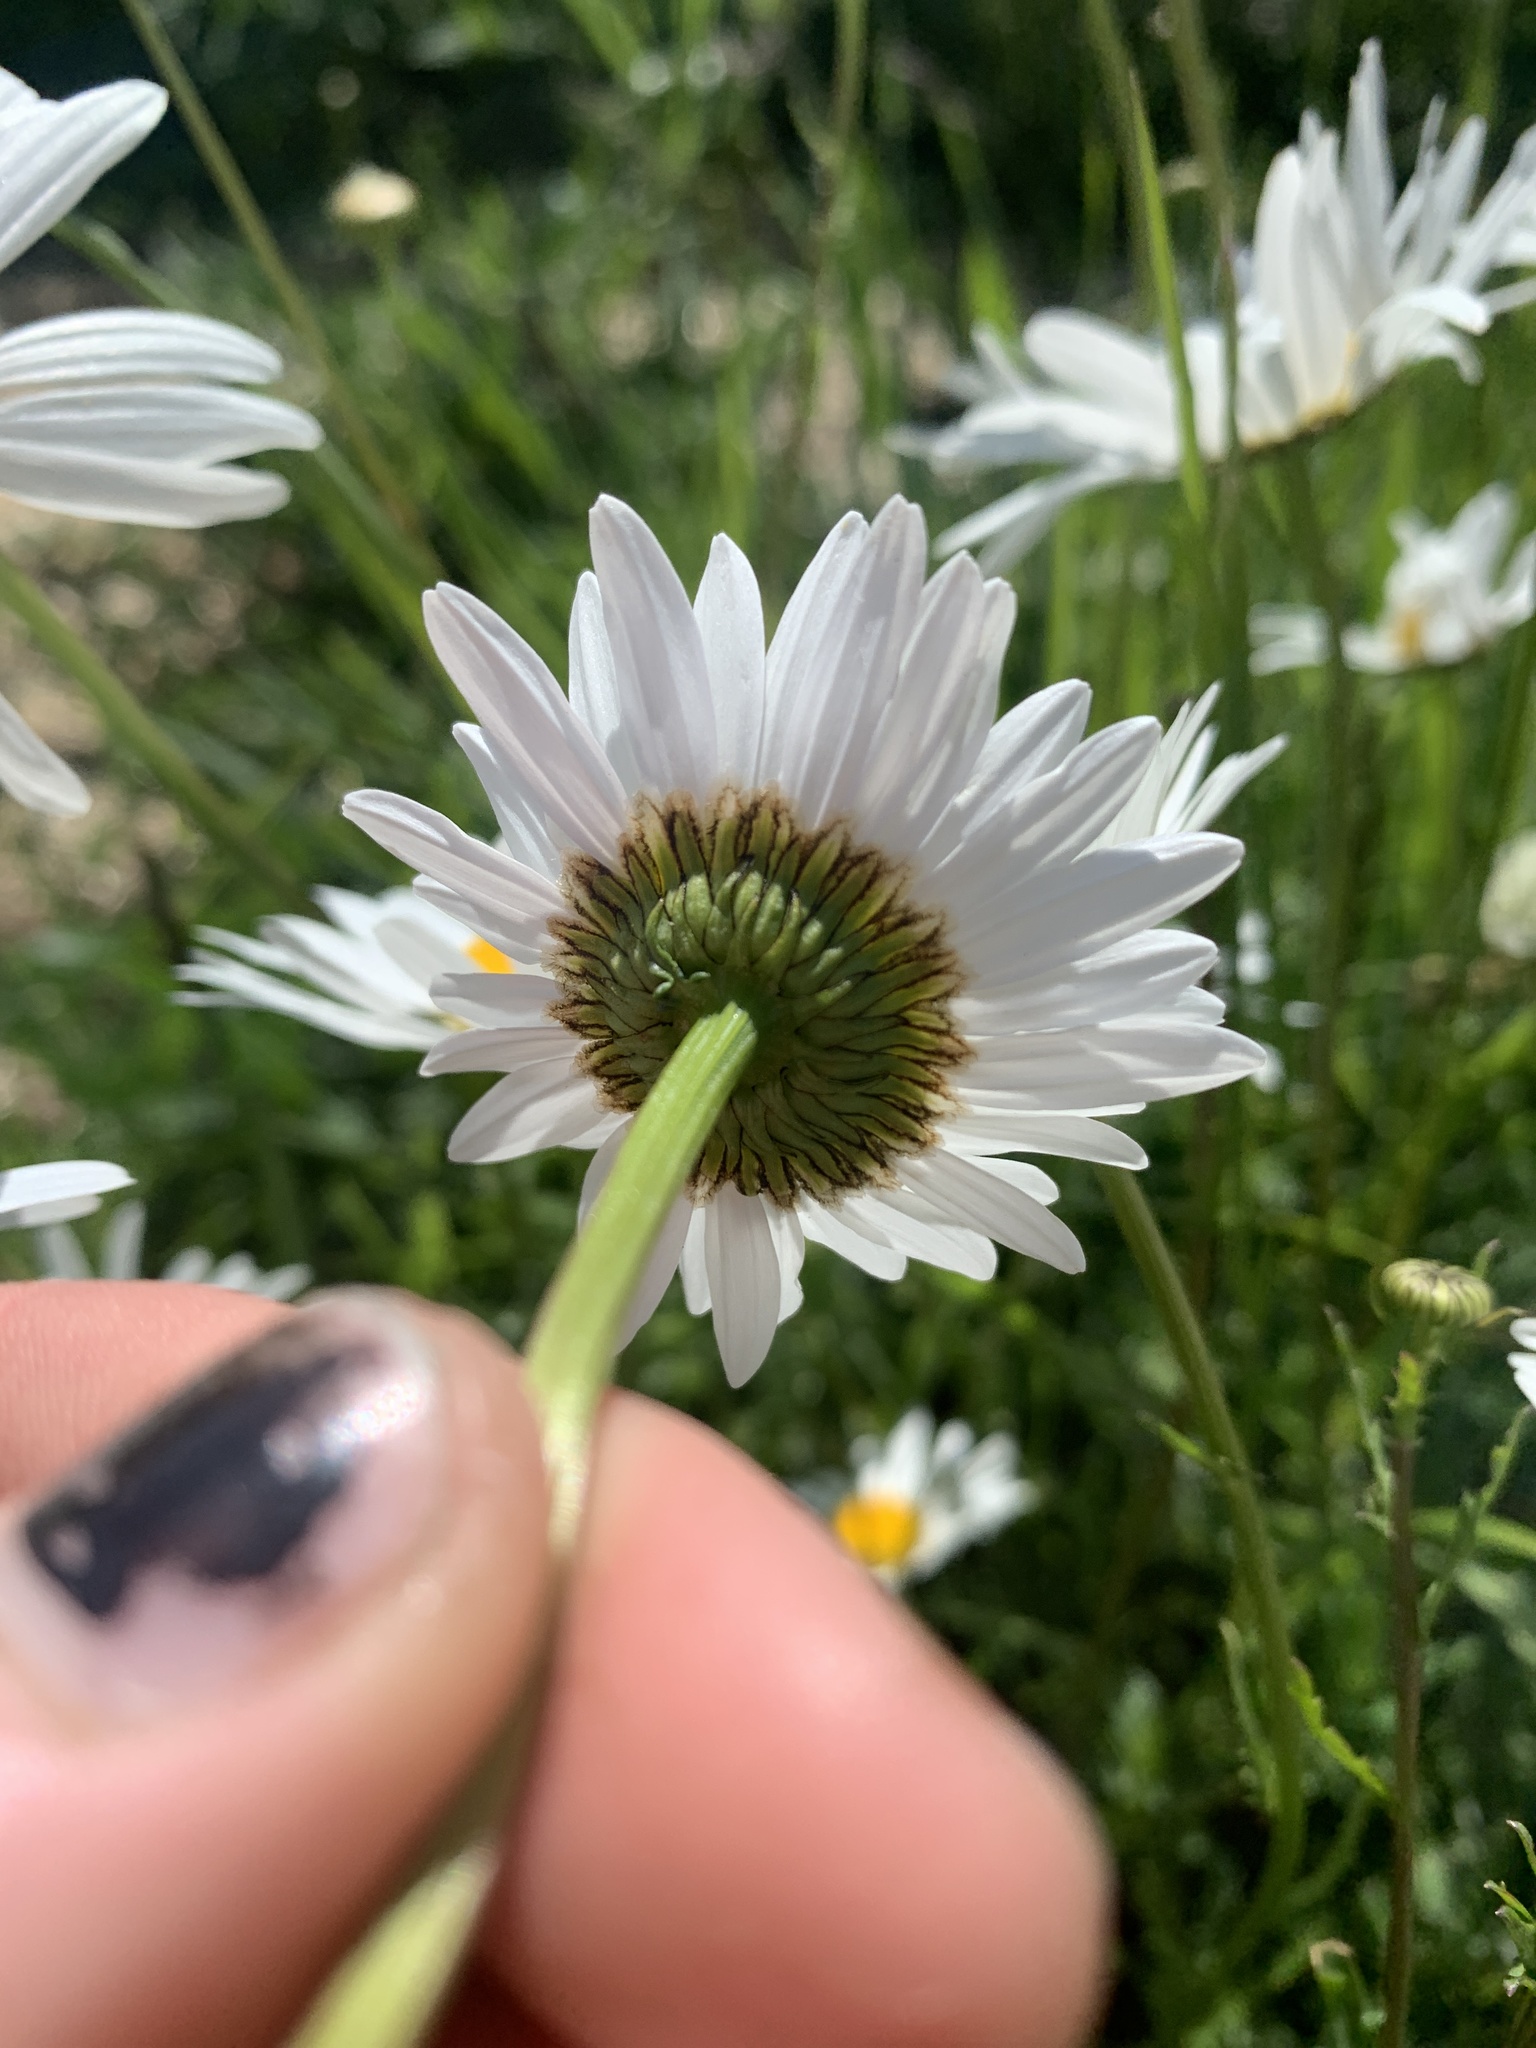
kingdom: Plantae
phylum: Tracheophyta
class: Magnoliopsida
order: Asterales
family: Asteraceae
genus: Leucanthemum
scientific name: Leucanthemum vulgare
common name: Oxeye daisy
